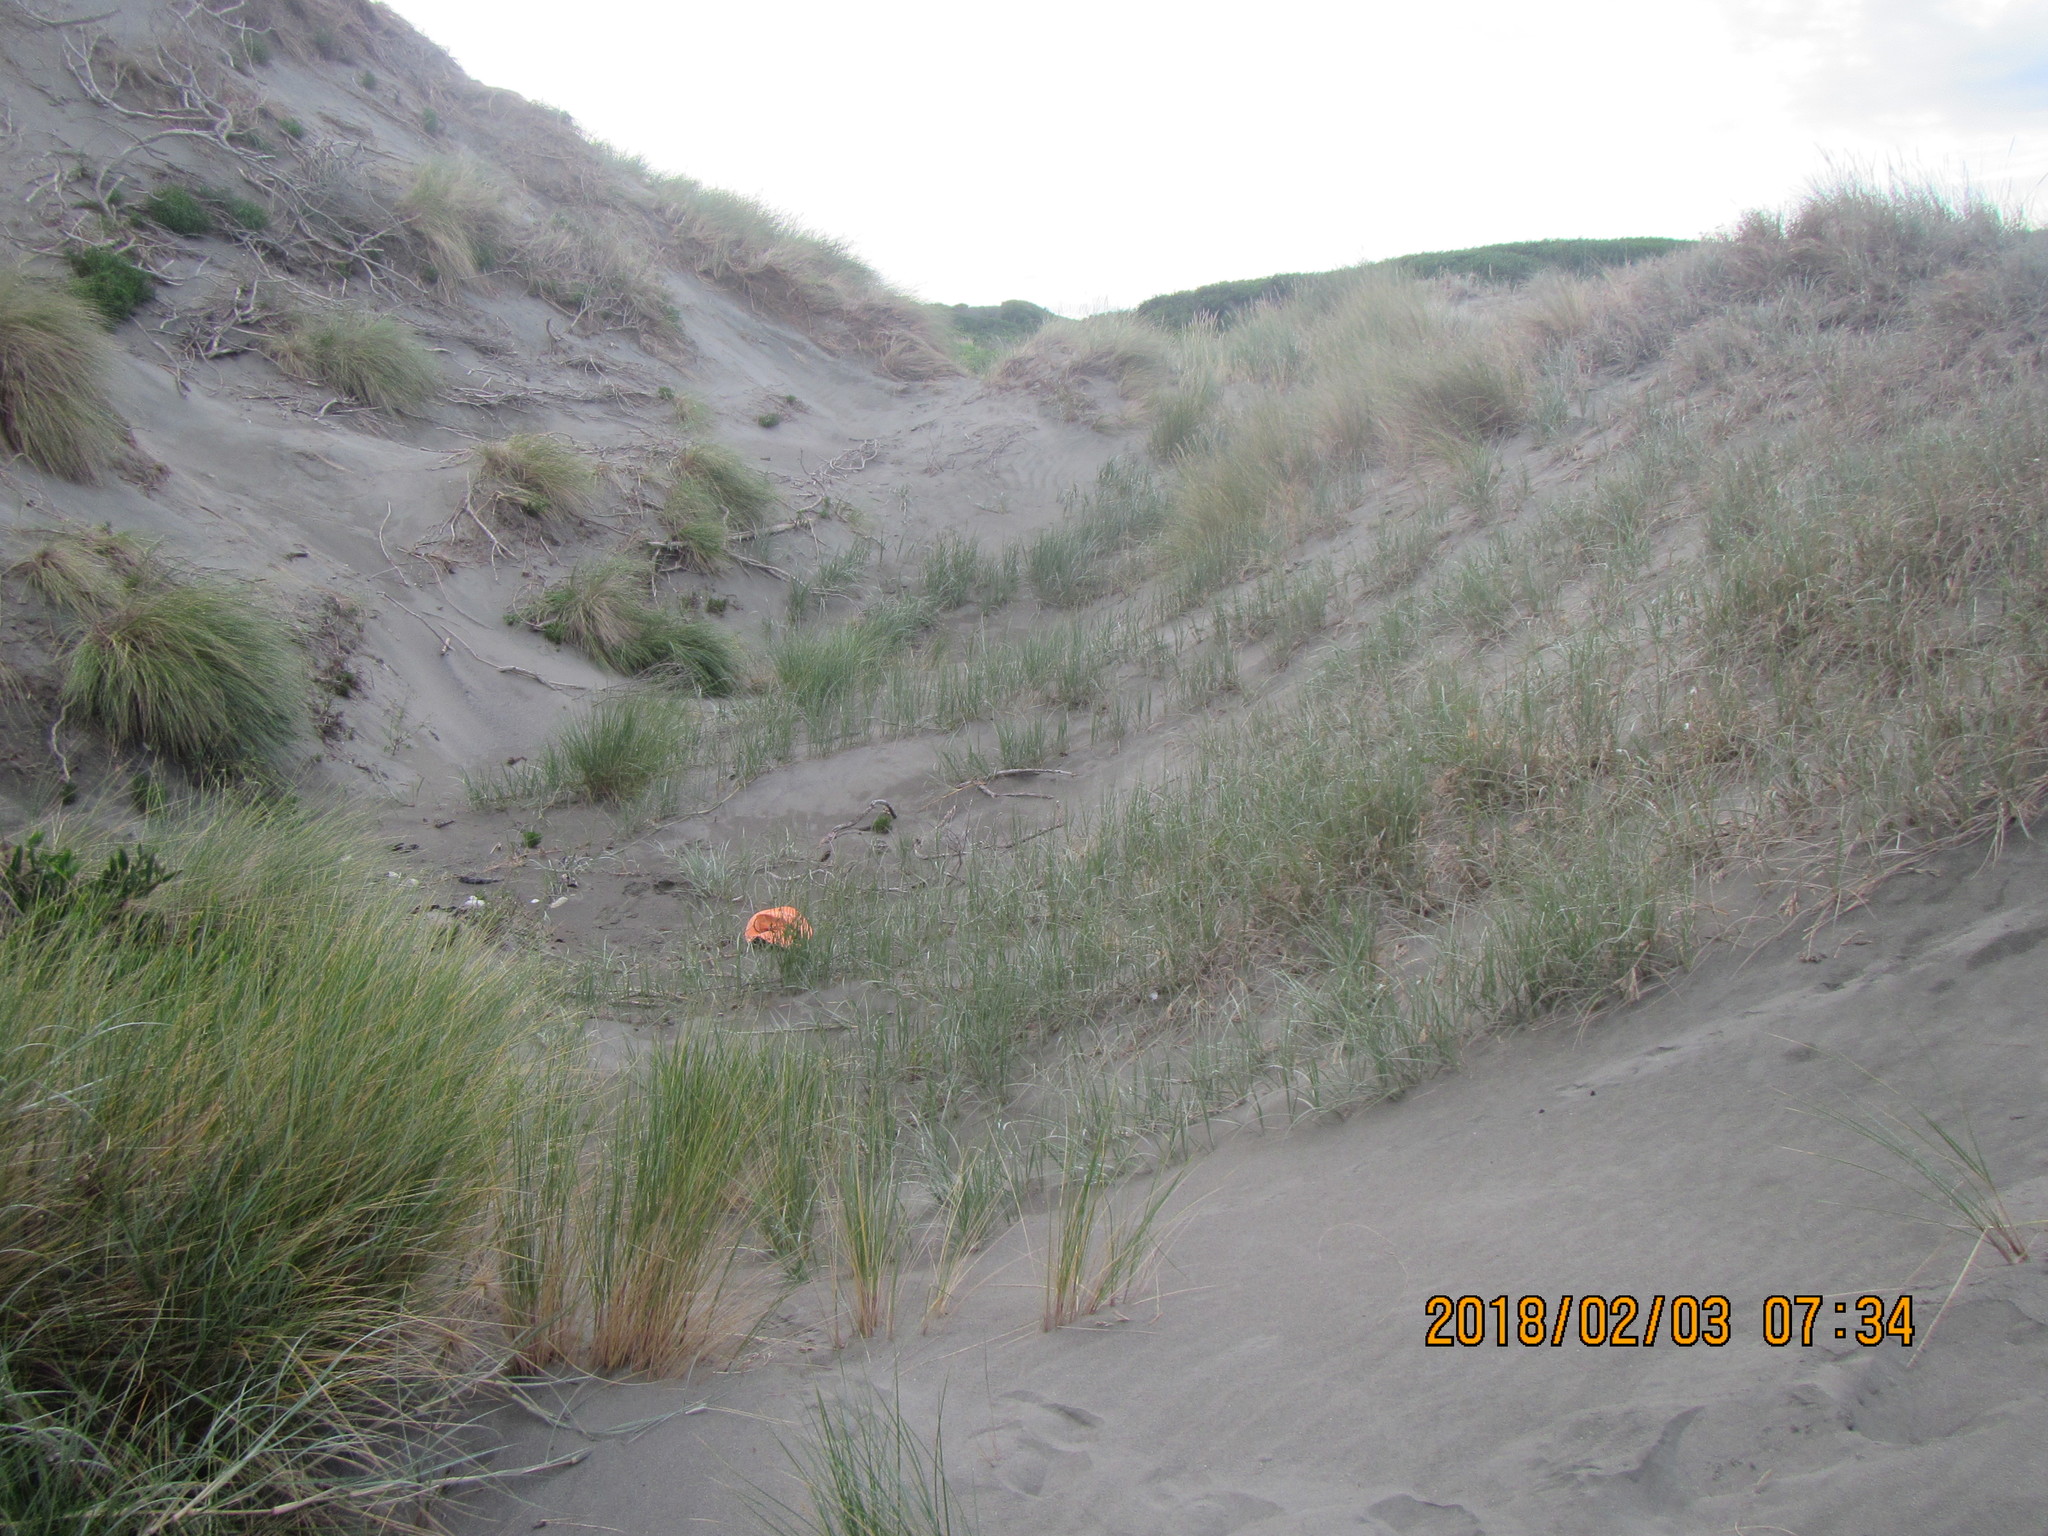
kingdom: Animalia
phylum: Arthropoda
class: Arachnida
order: Araneae
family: Lycosidae
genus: Anoteropsis
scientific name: Anoteropsis litoralis
